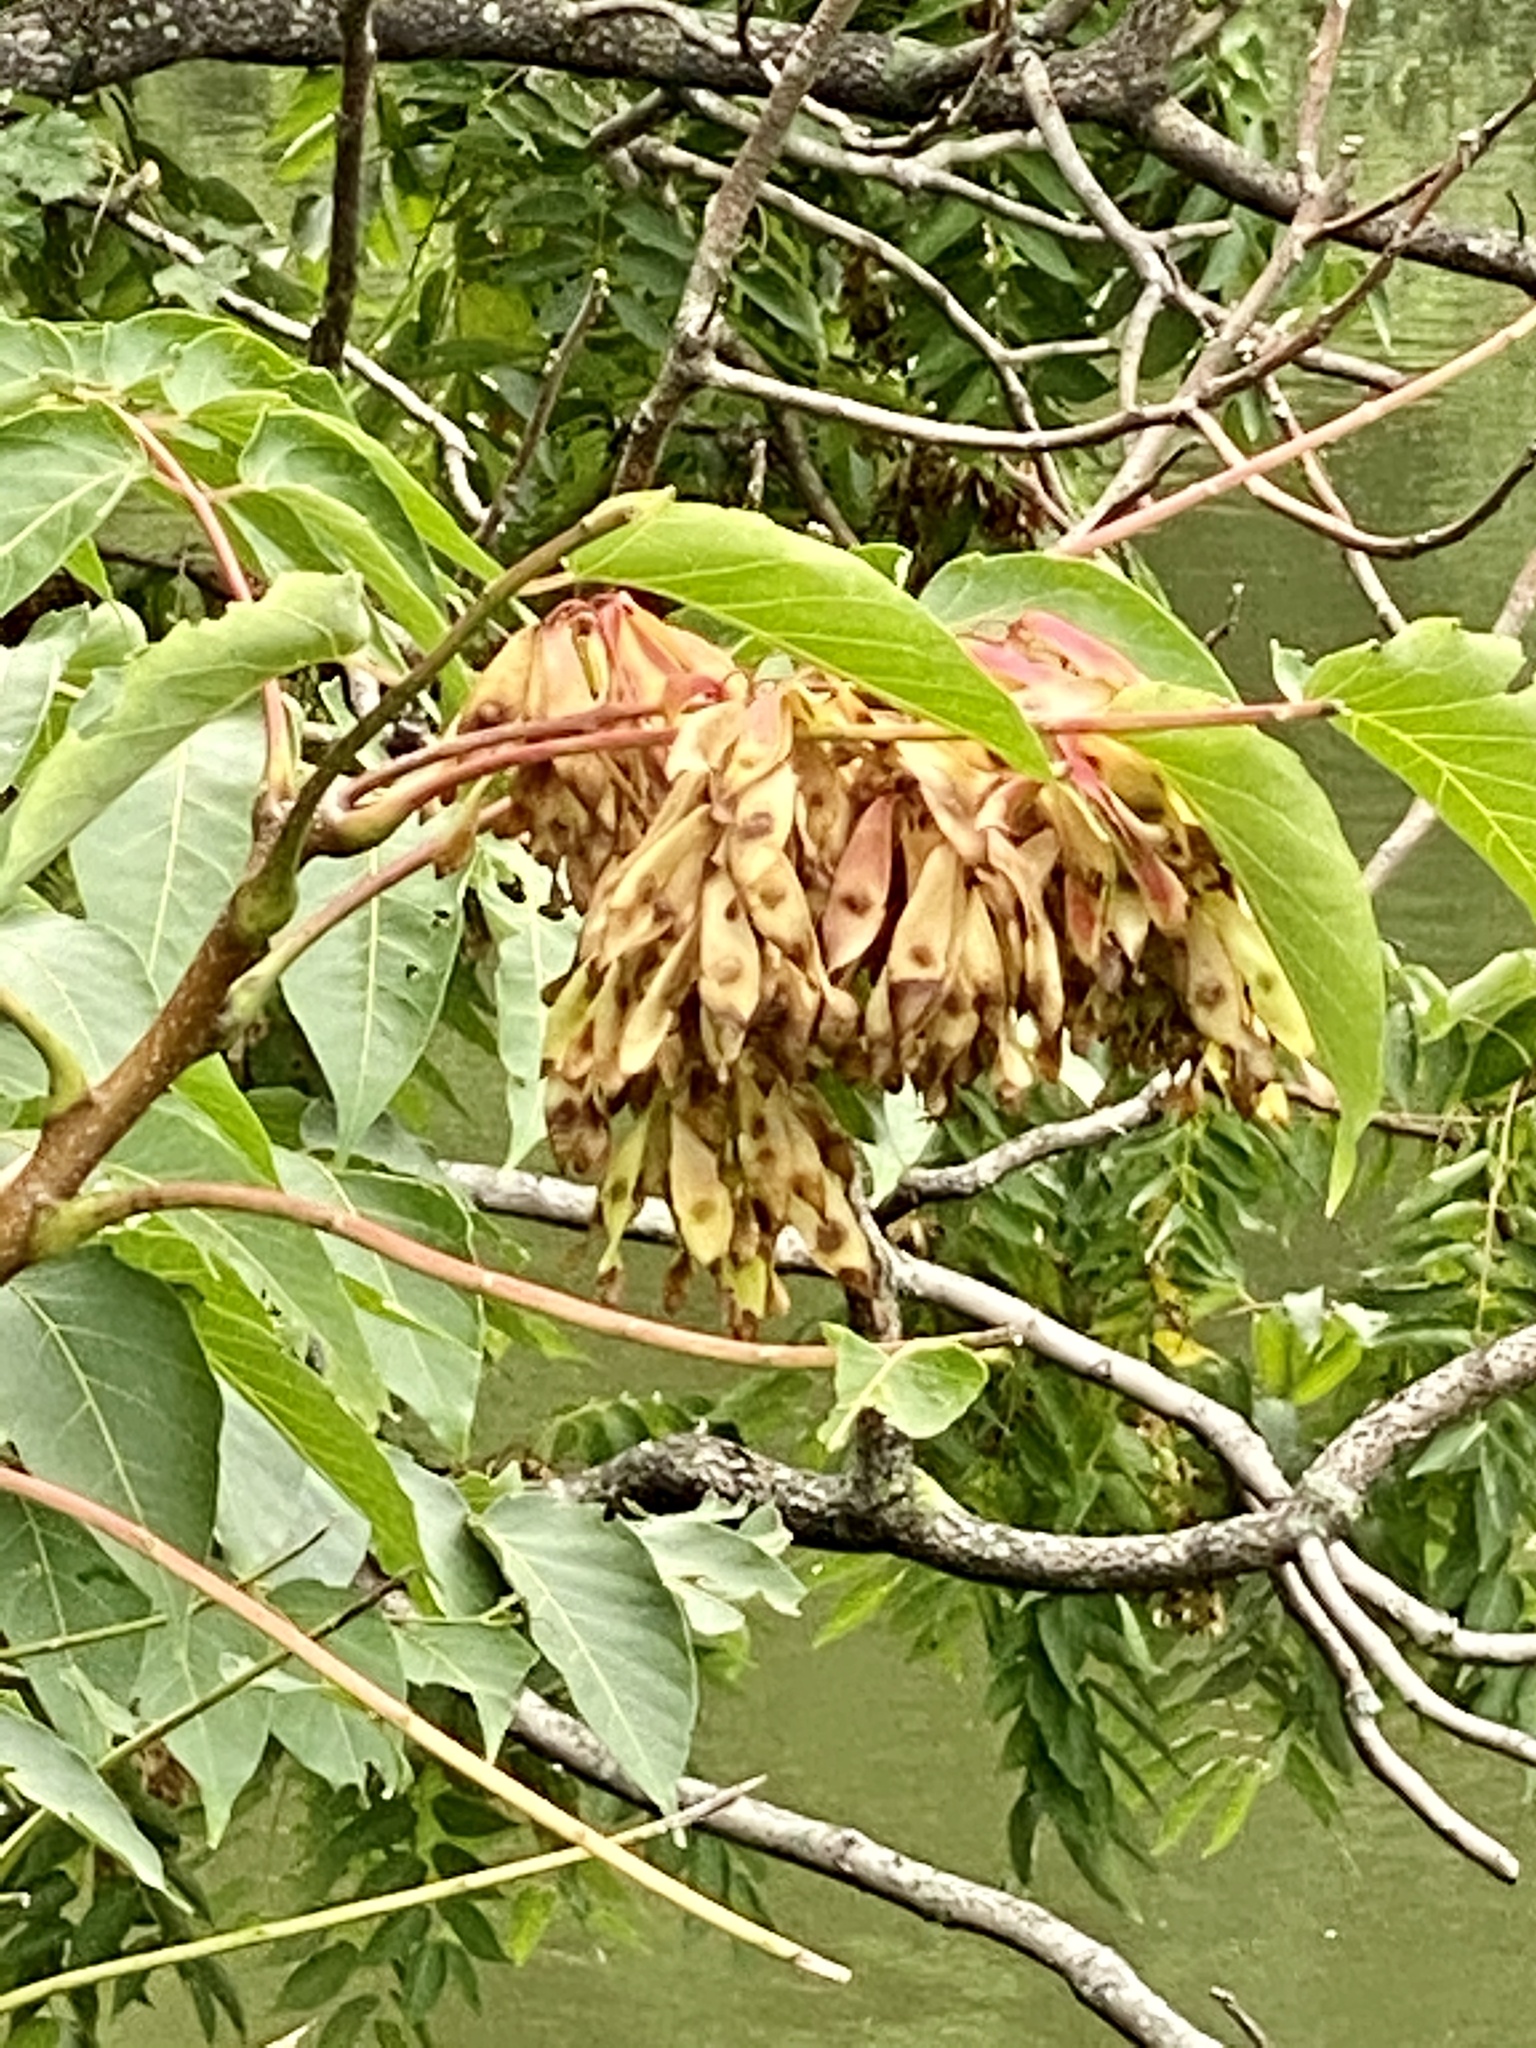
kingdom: Plantae
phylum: Tracheophyta
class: Magnoliopsida
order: Sapindales
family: Simaroubaceae
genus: Ailanthus
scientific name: Ailanthus altissima
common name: Tree-of-heaven
